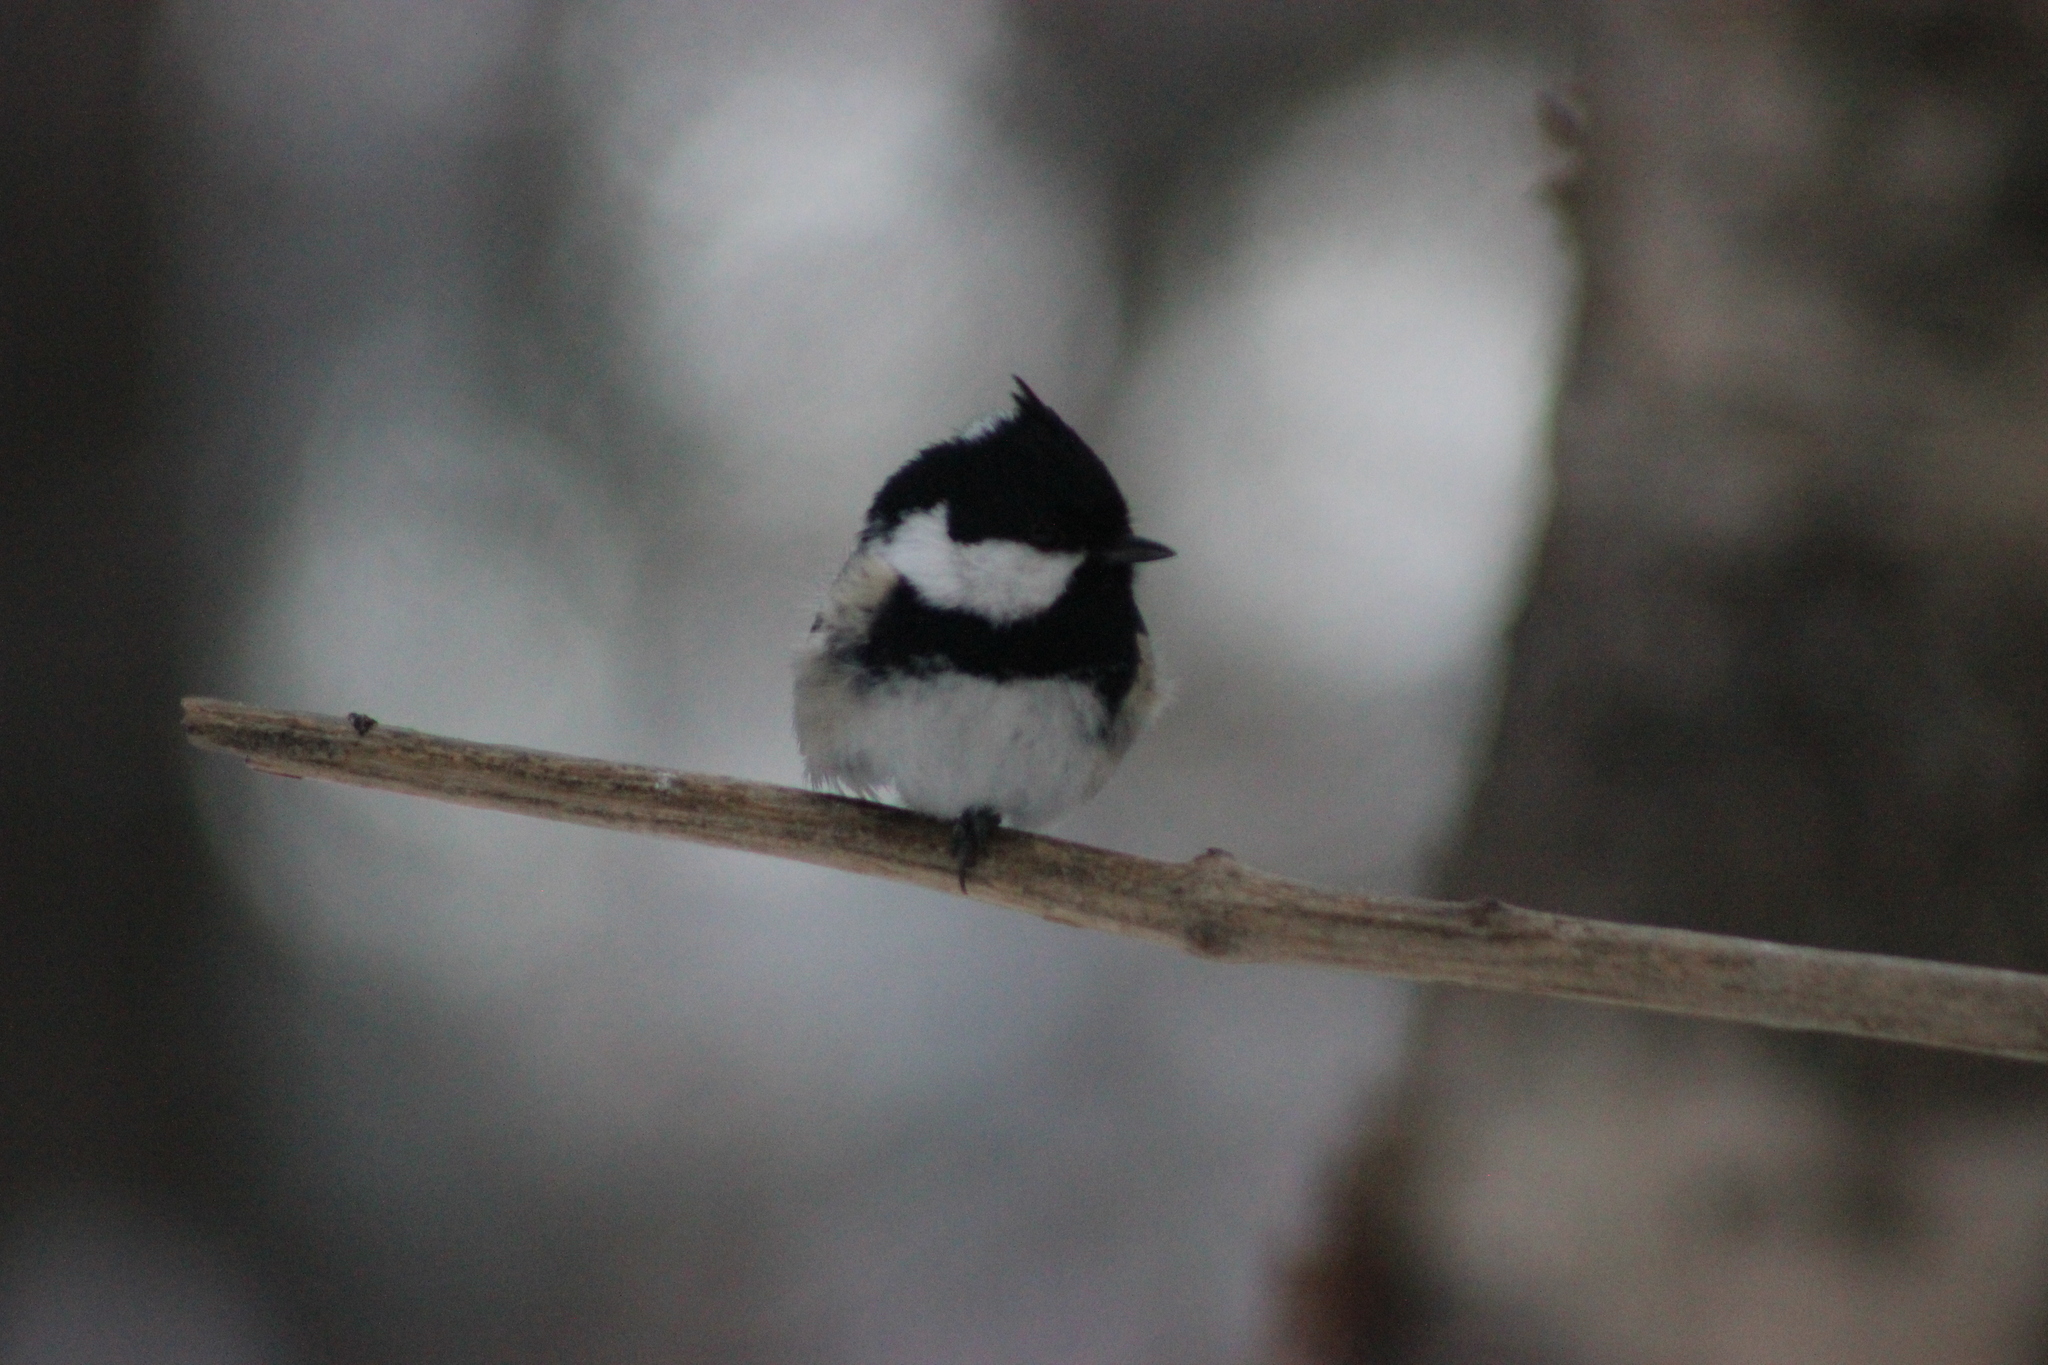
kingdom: Animalia
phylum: Chordata
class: Aves
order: Passeriformes
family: Paridae
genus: Periparus
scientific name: Periparus ater
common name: Coal tit
